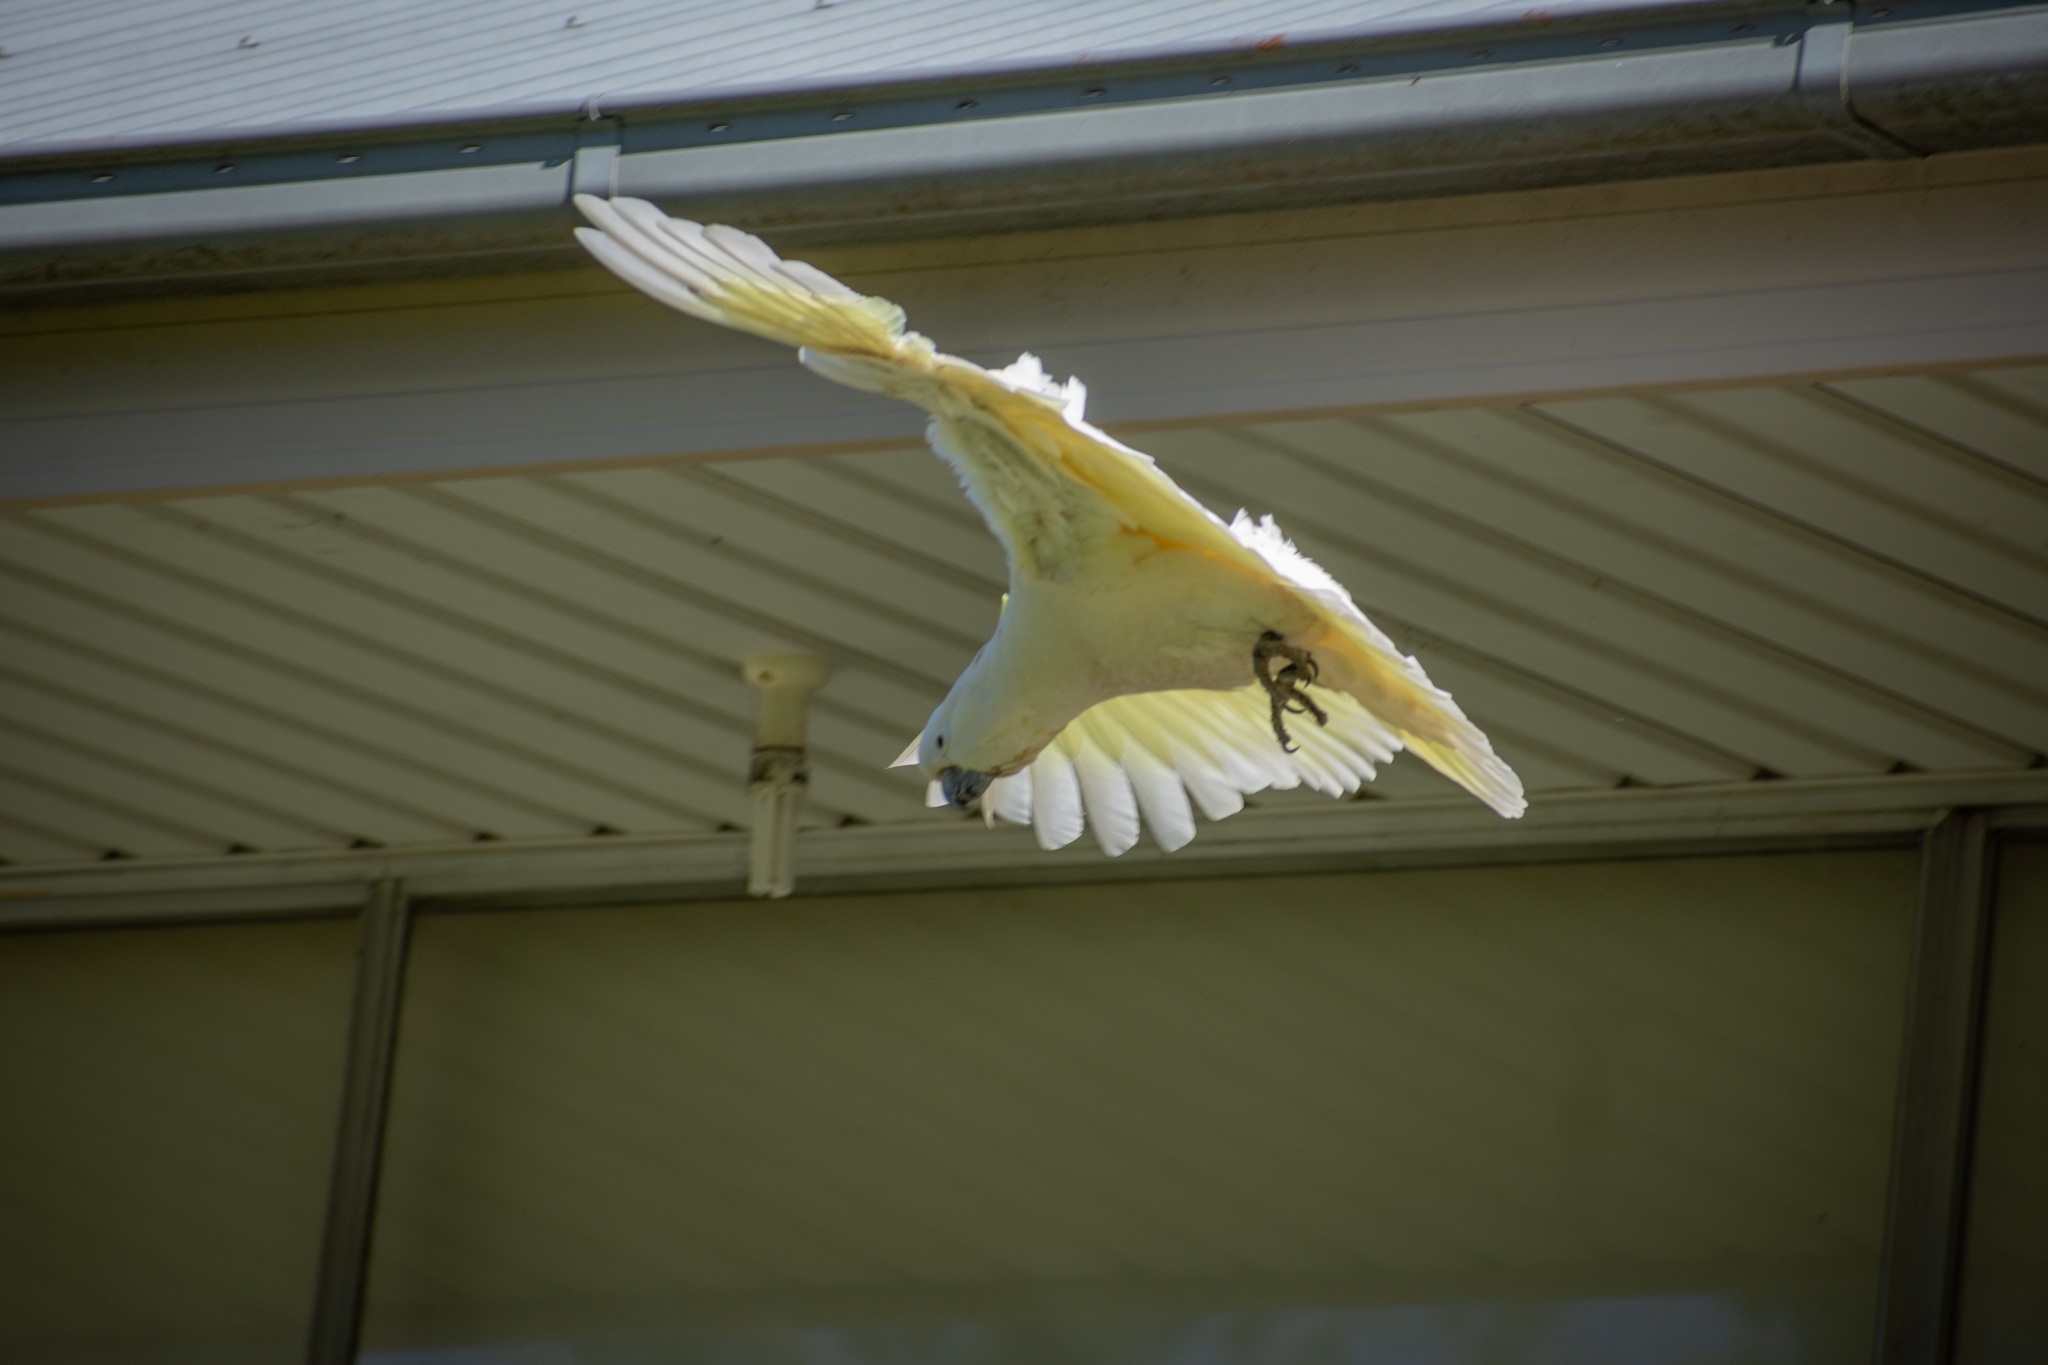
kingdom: Animalia
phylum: Chordata
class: Aves
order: Psittaciformes
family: Psittacidae
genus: Cacatua
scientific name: Cacatua galerita
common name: Sulphur-crested cockatoo
